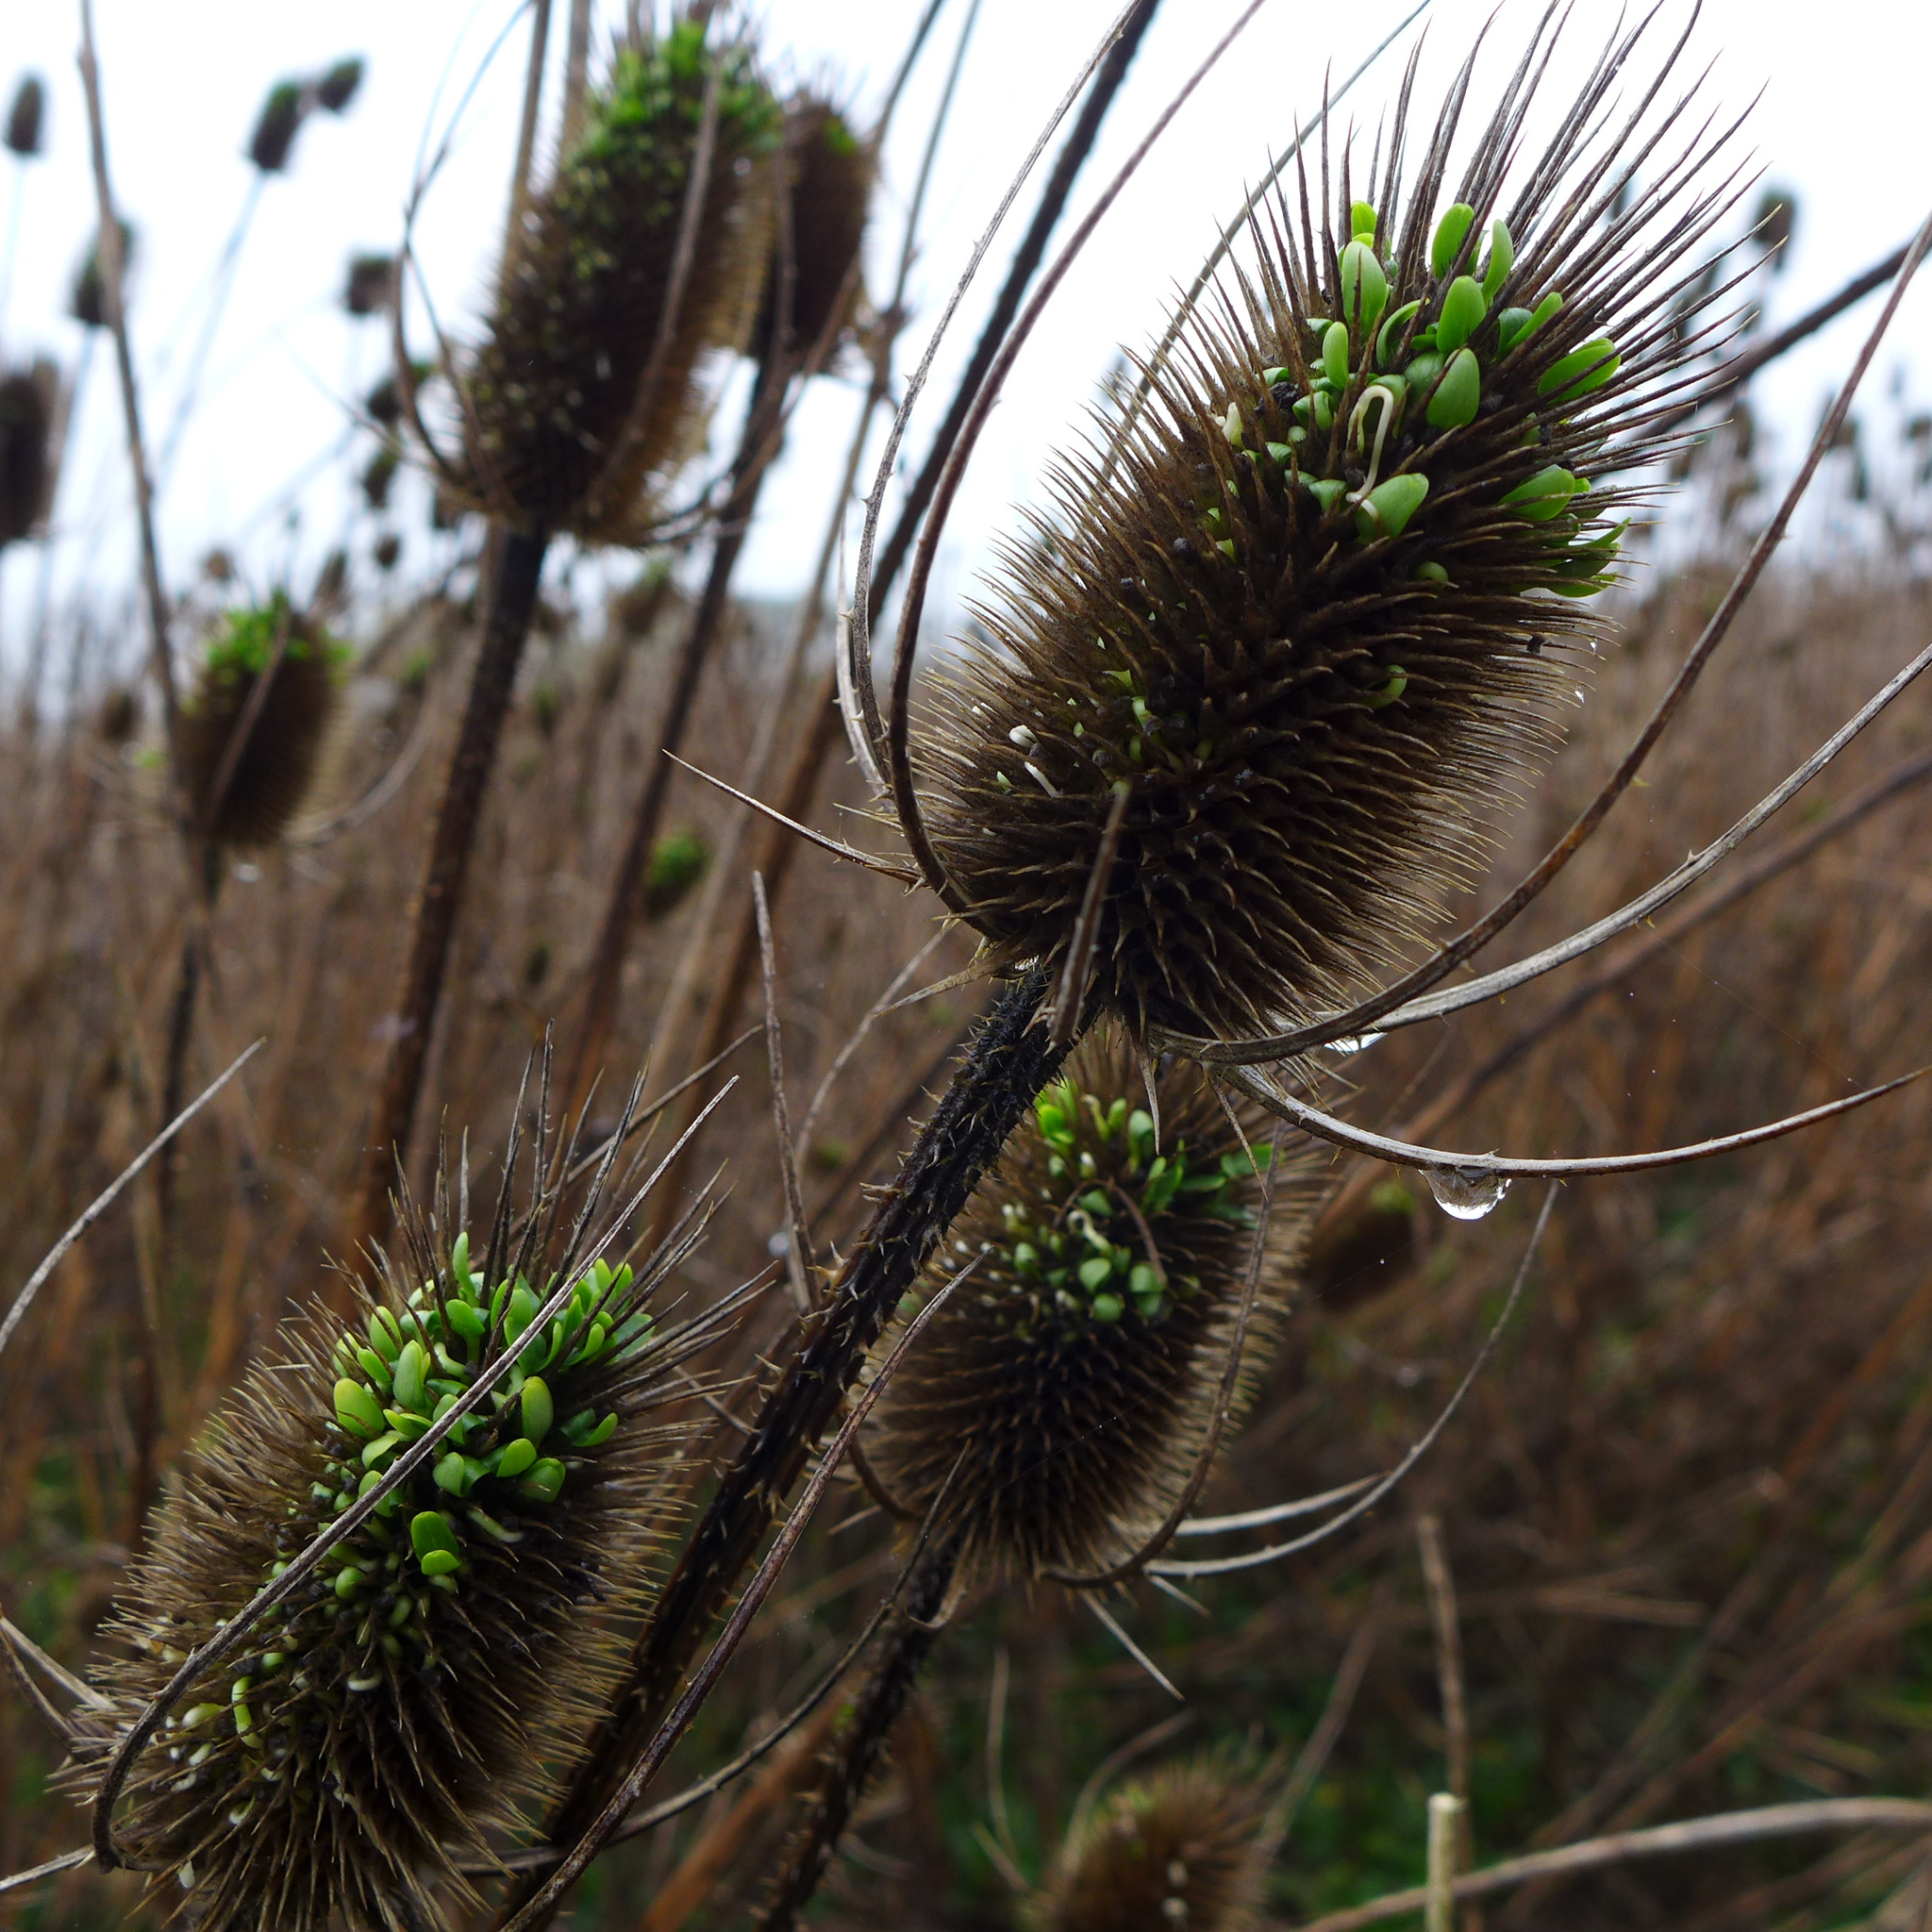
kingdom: Plantae
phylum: Tracheophyta
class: Magnoliopsida
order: Dipsacales
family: Caprifoliaceae
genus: Dipsacus
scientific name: Dipsacus fullonum
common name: Teasel
